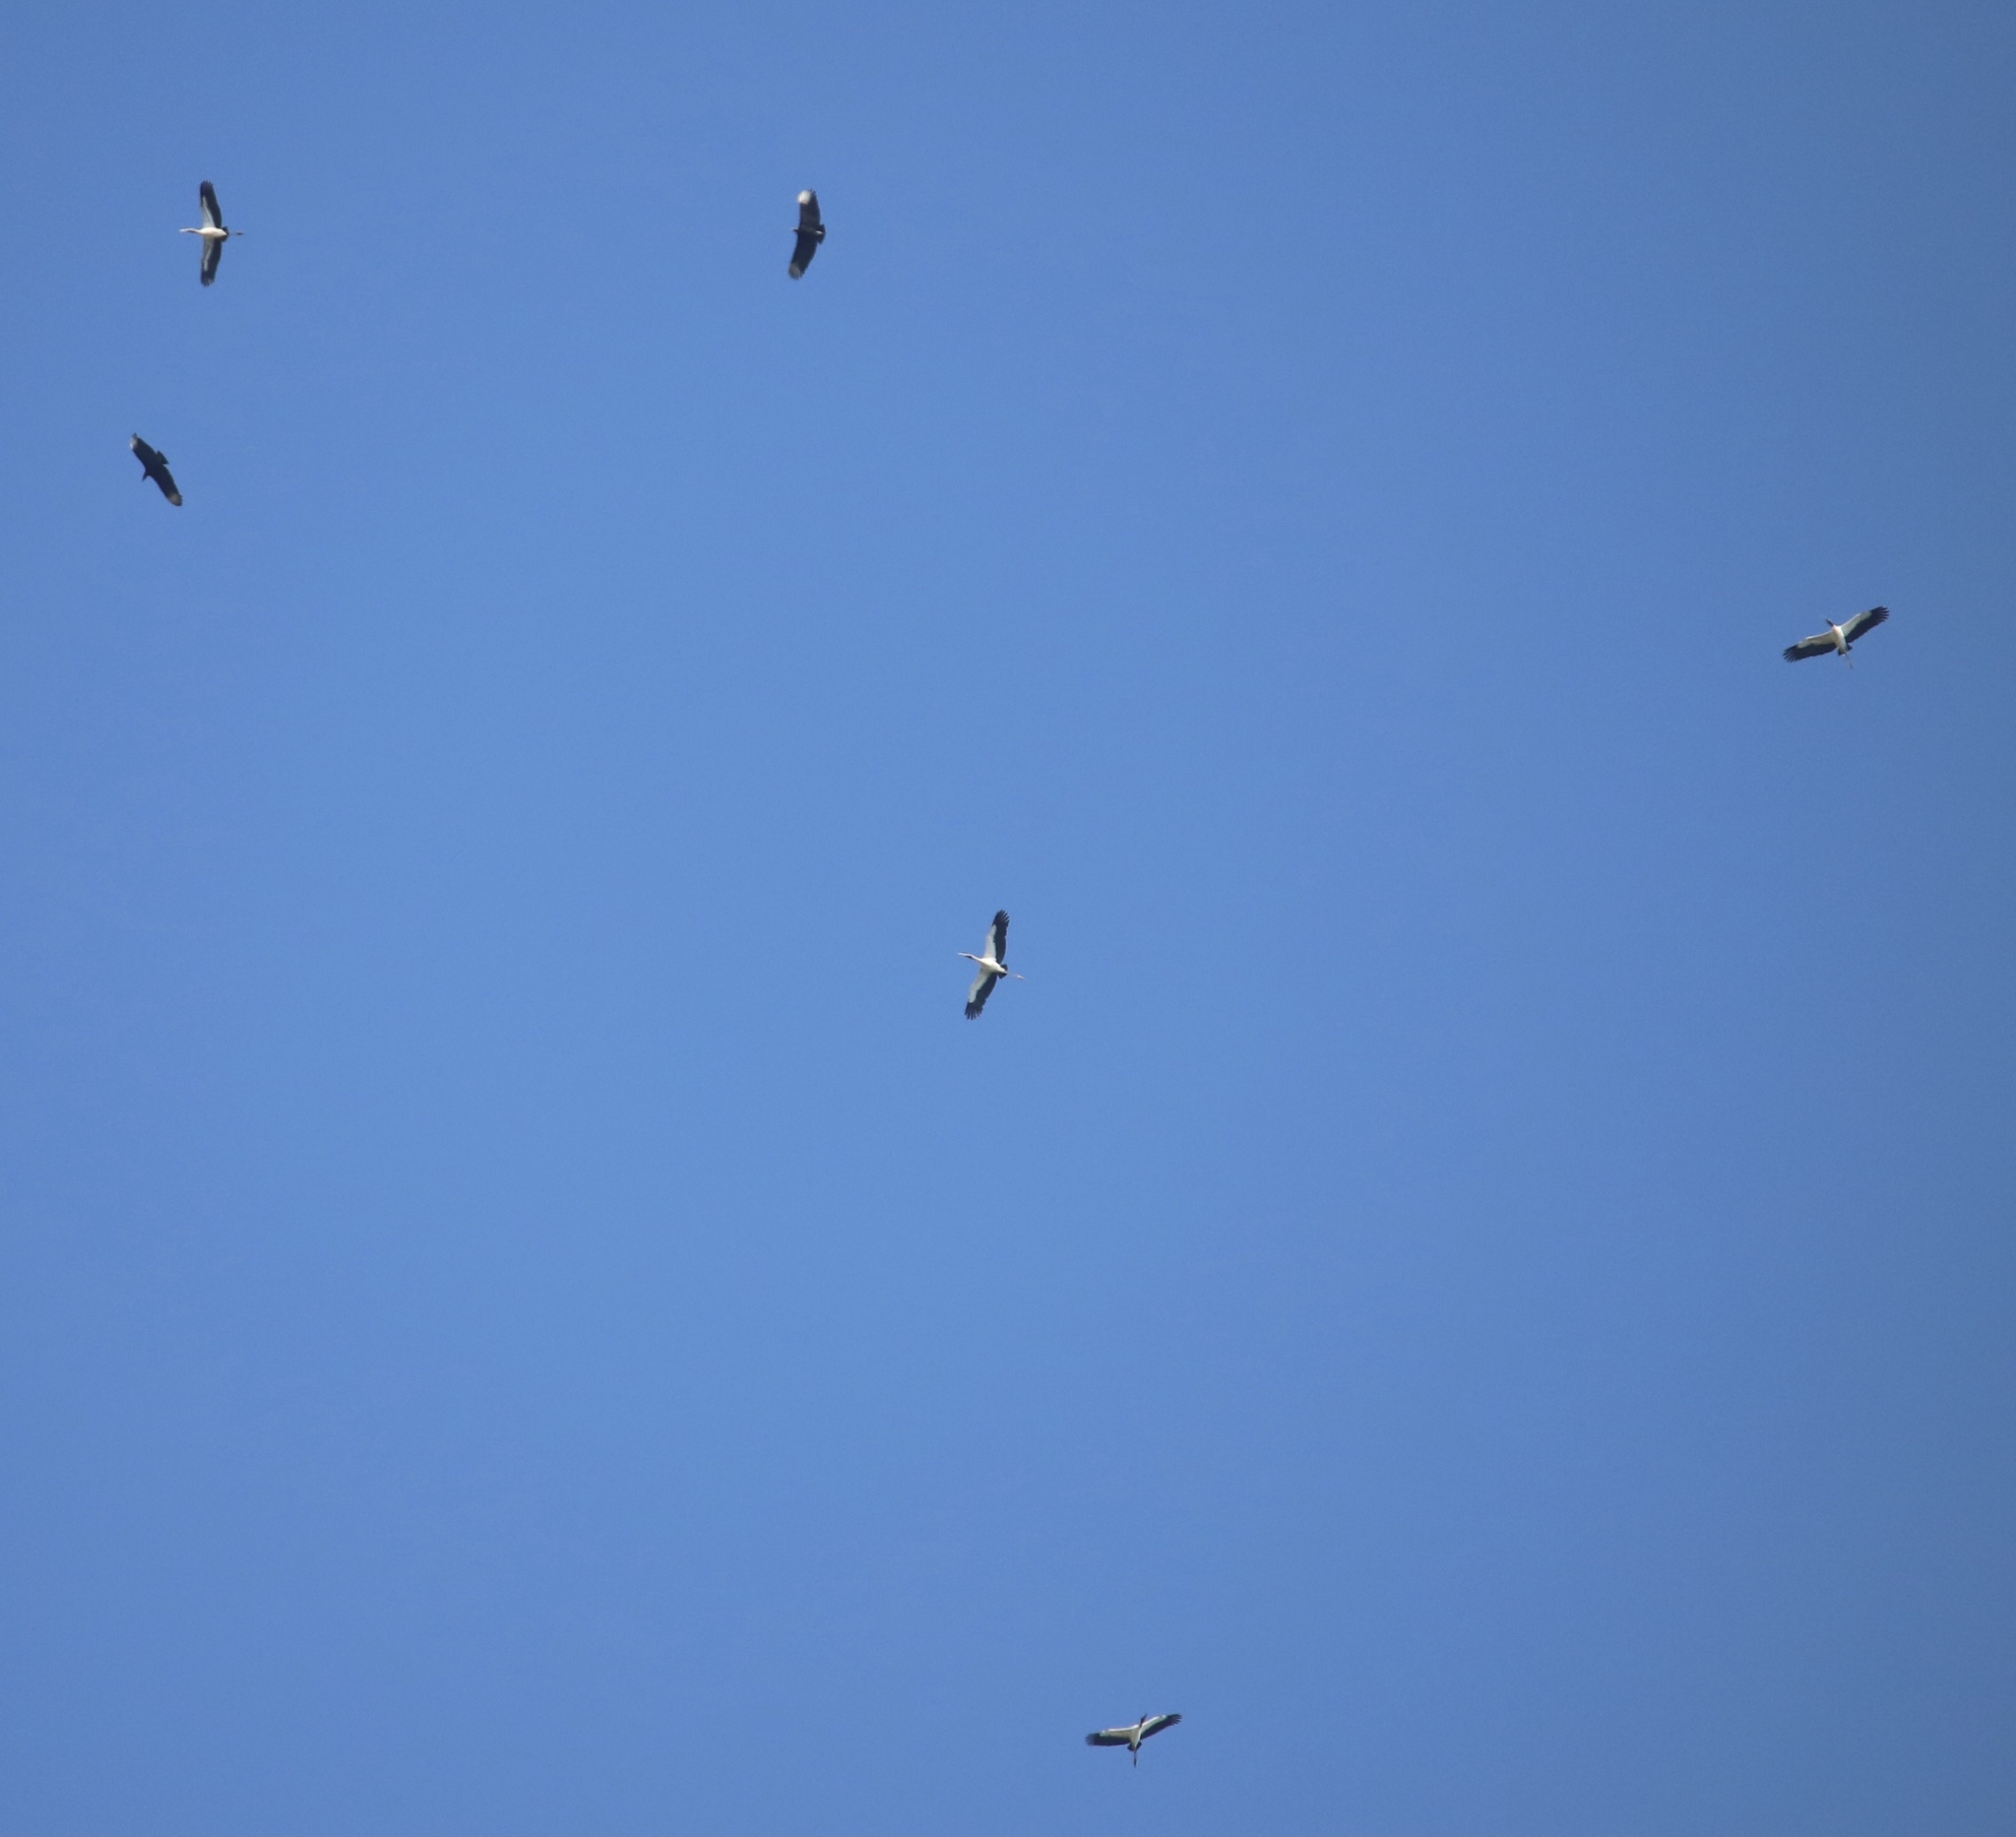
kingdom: Animalia
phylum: Chordata
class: Aves
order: Ciconiiformes
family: Ciconiidae
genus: Mycteria
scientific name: Mycteria americana
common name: Wood stork
